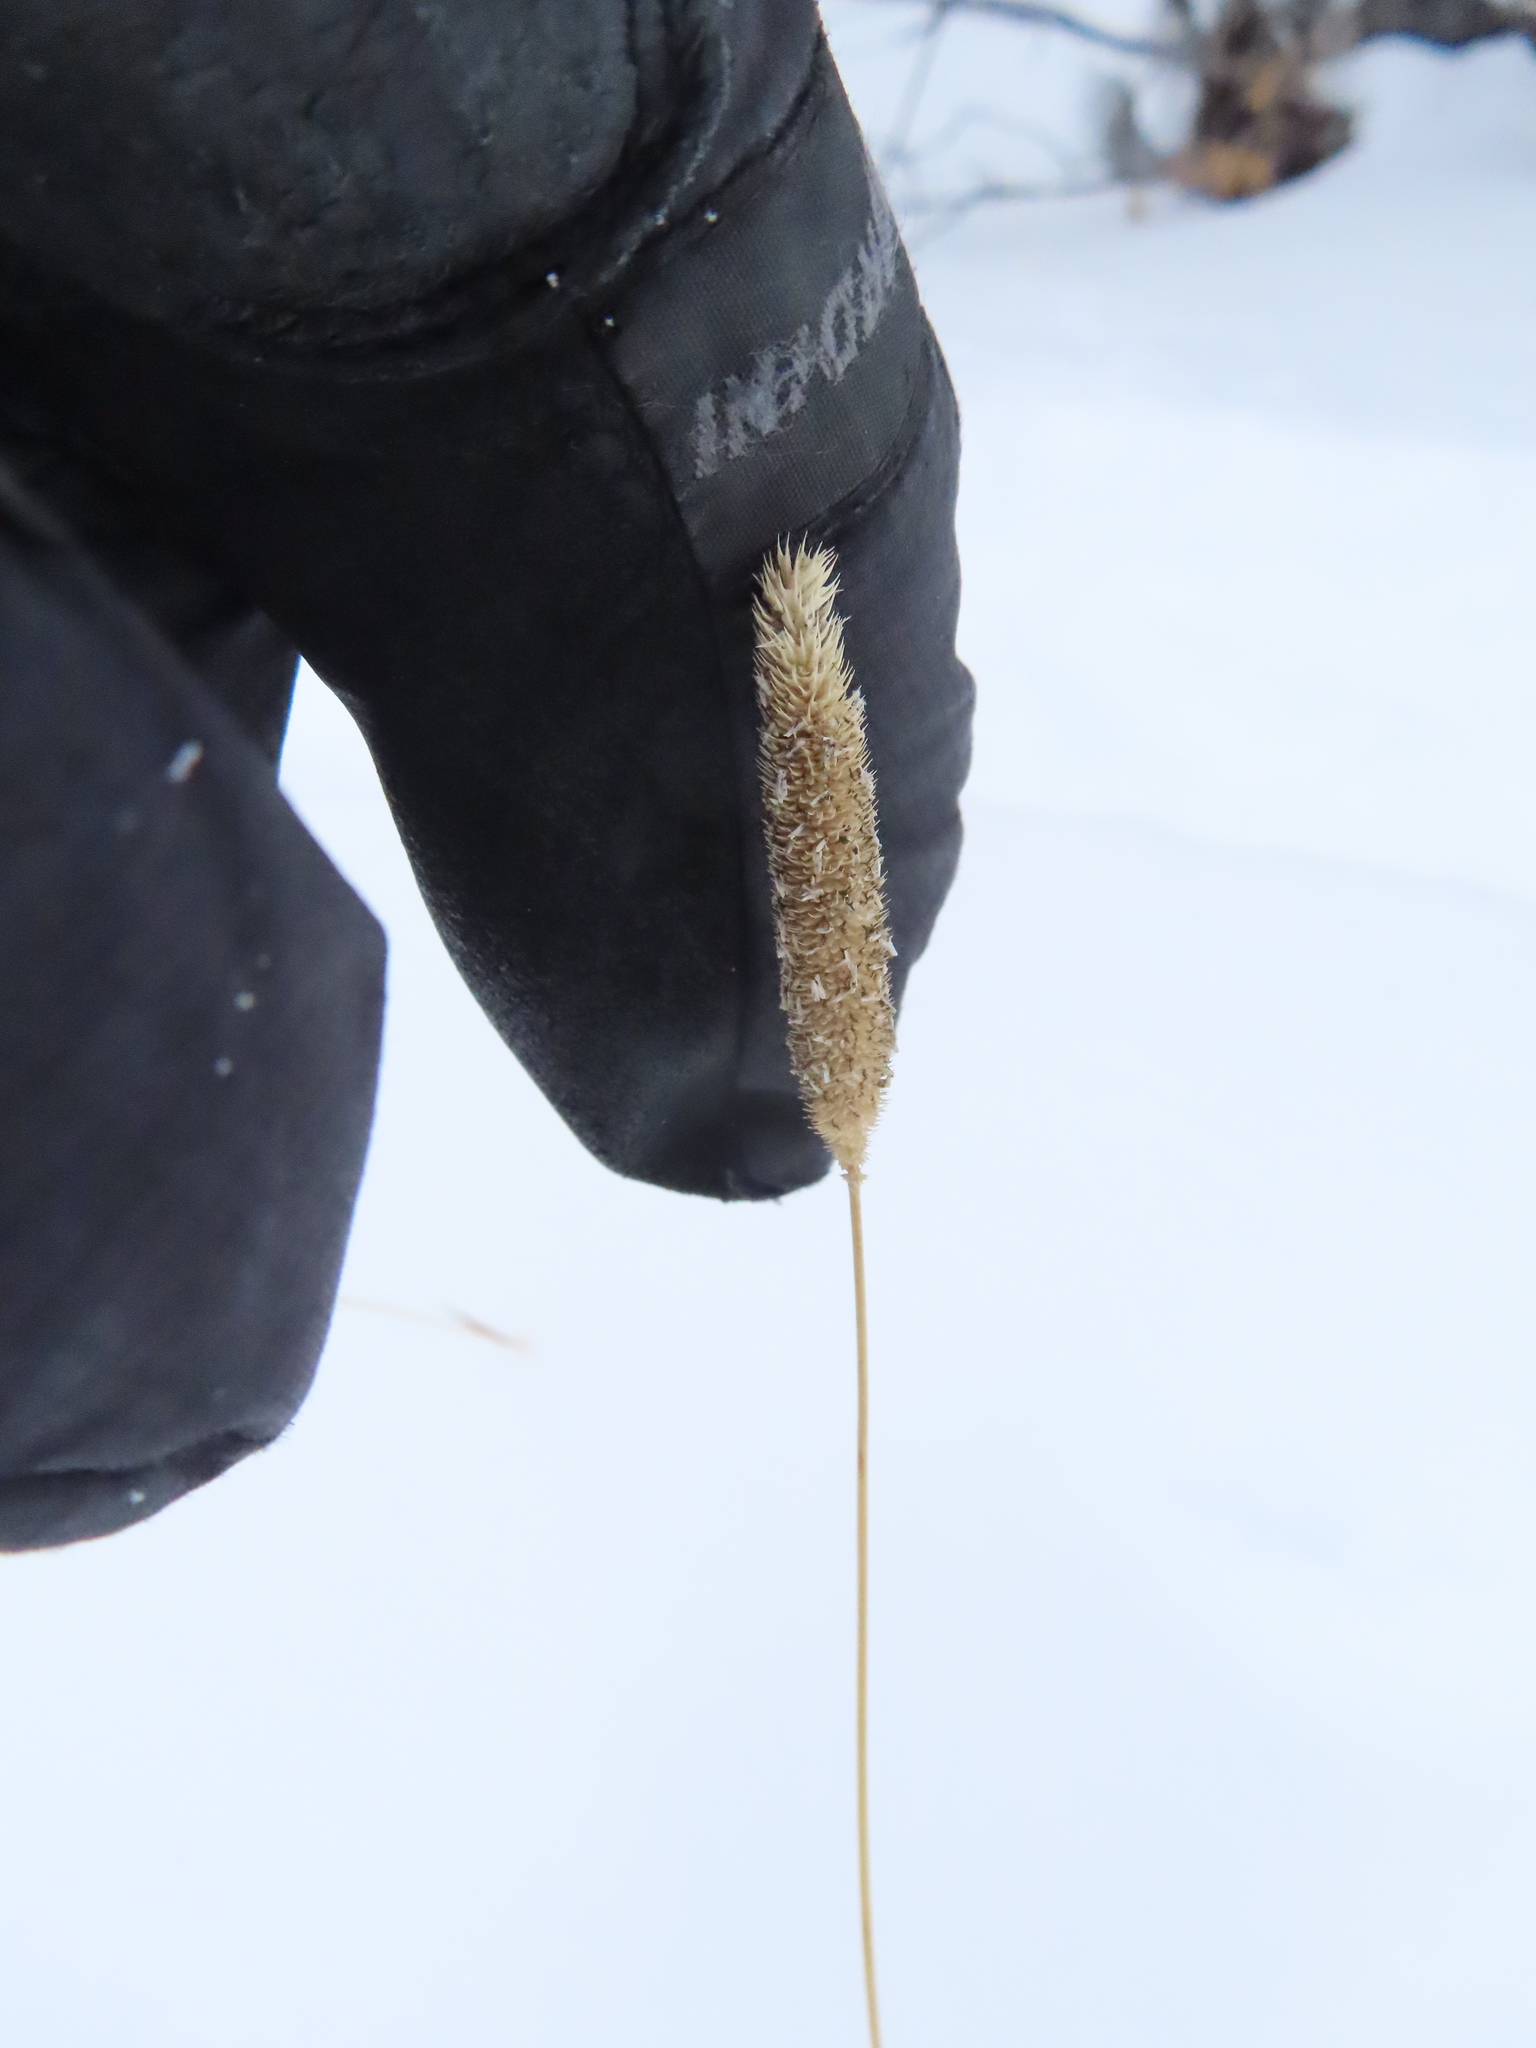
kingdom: Plantae
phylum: Tracheophyta
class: Liliopsida
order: Poales
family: Poaceae
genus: Phleum
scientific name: Phleum pratense
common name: Timothy grass
